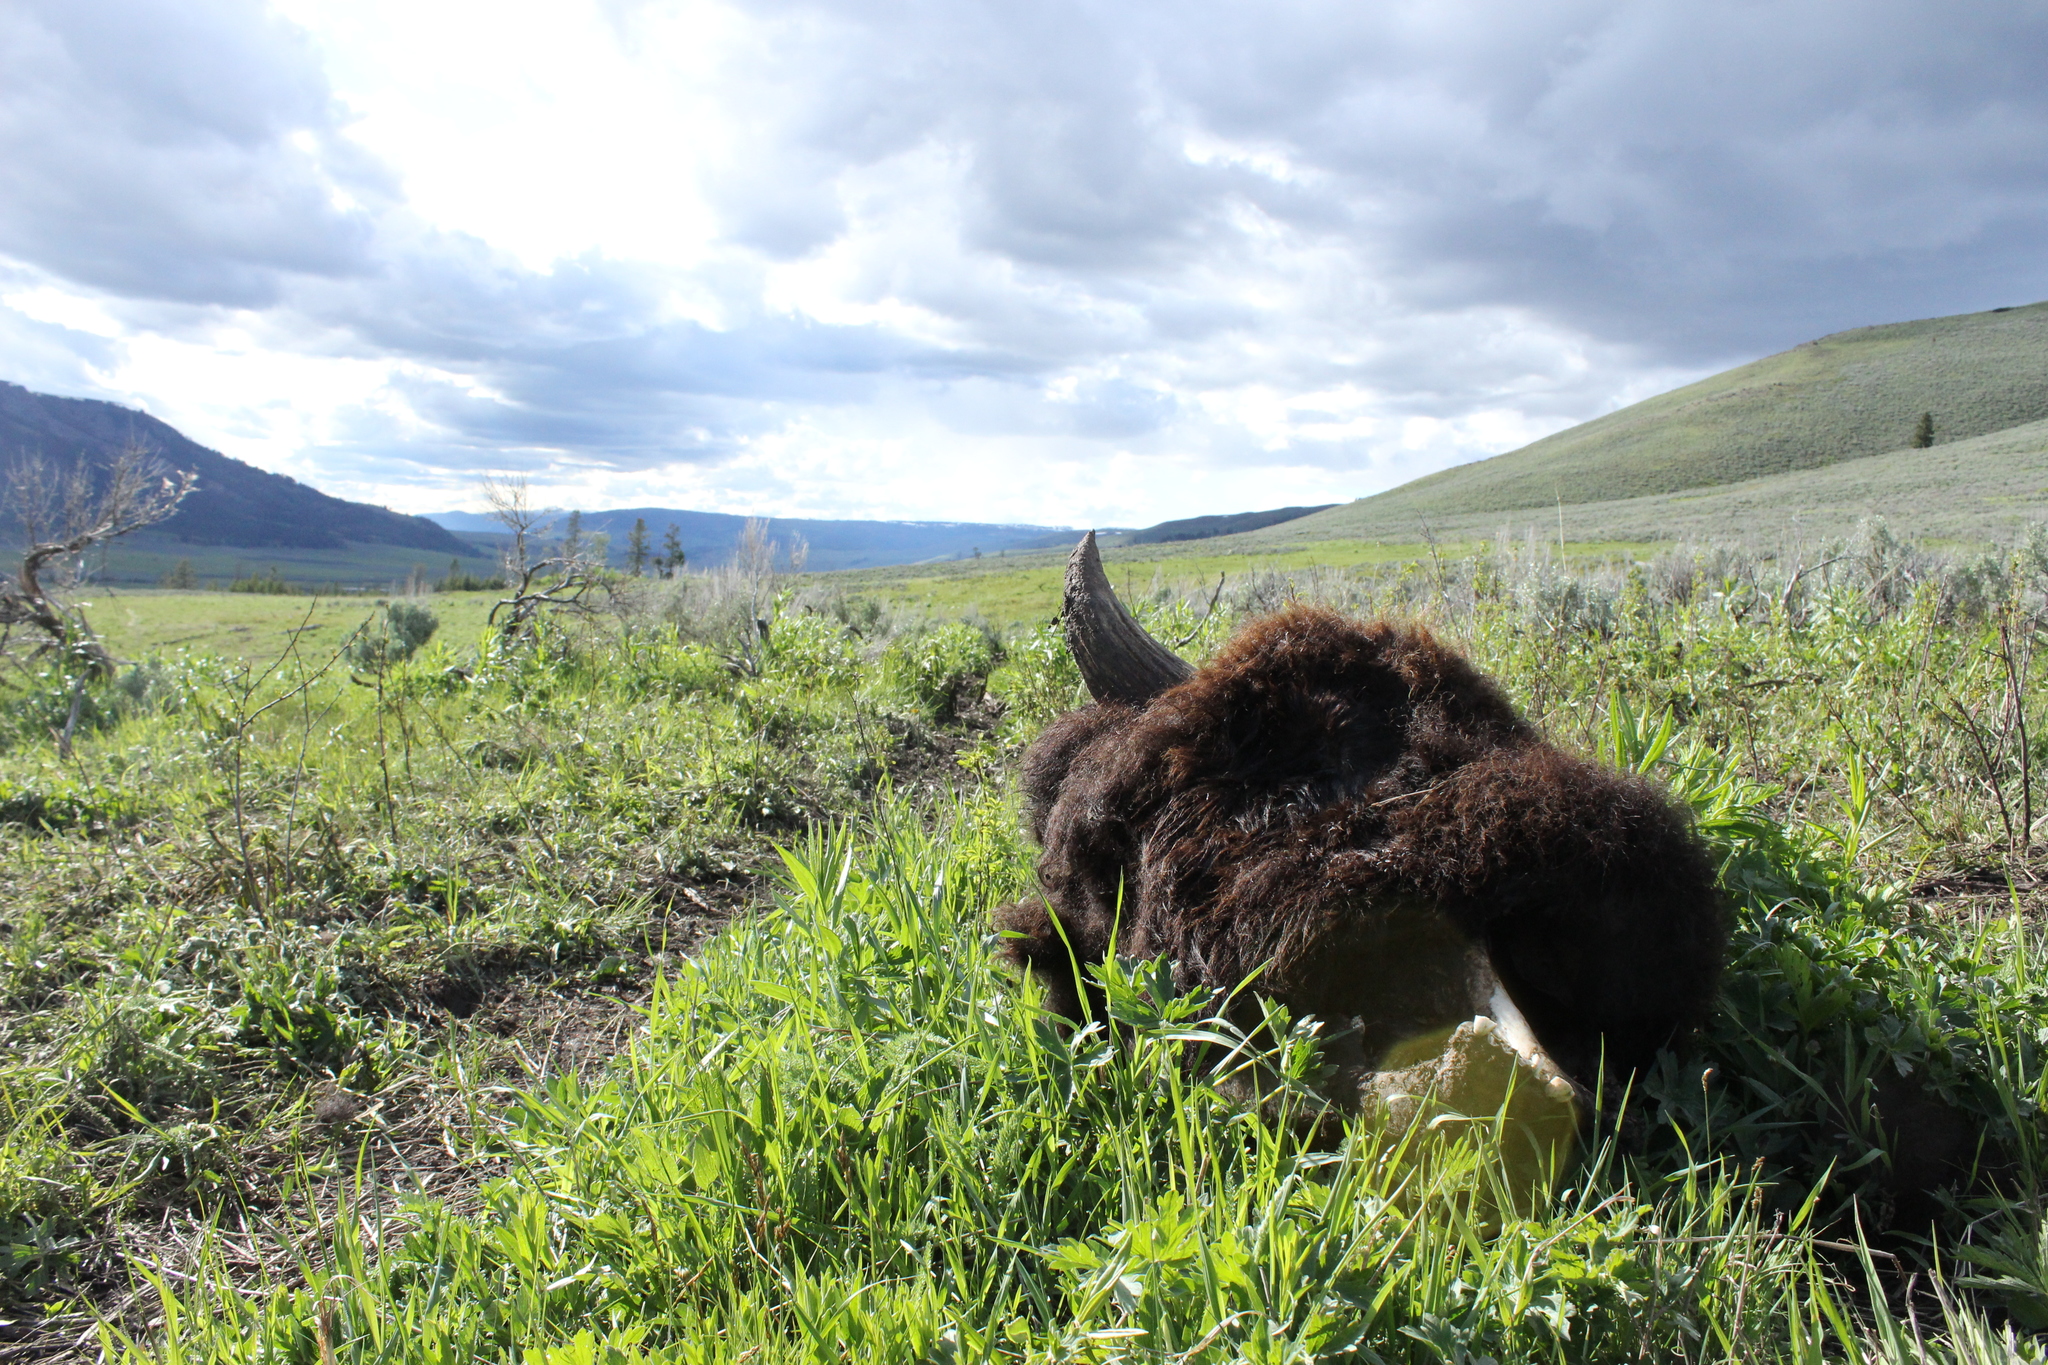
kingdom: Animalia
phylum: Chordata
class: Mammalia
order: Artiodactyla
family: Bovidae
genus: Bison
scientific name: Bison bison
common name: American bison
